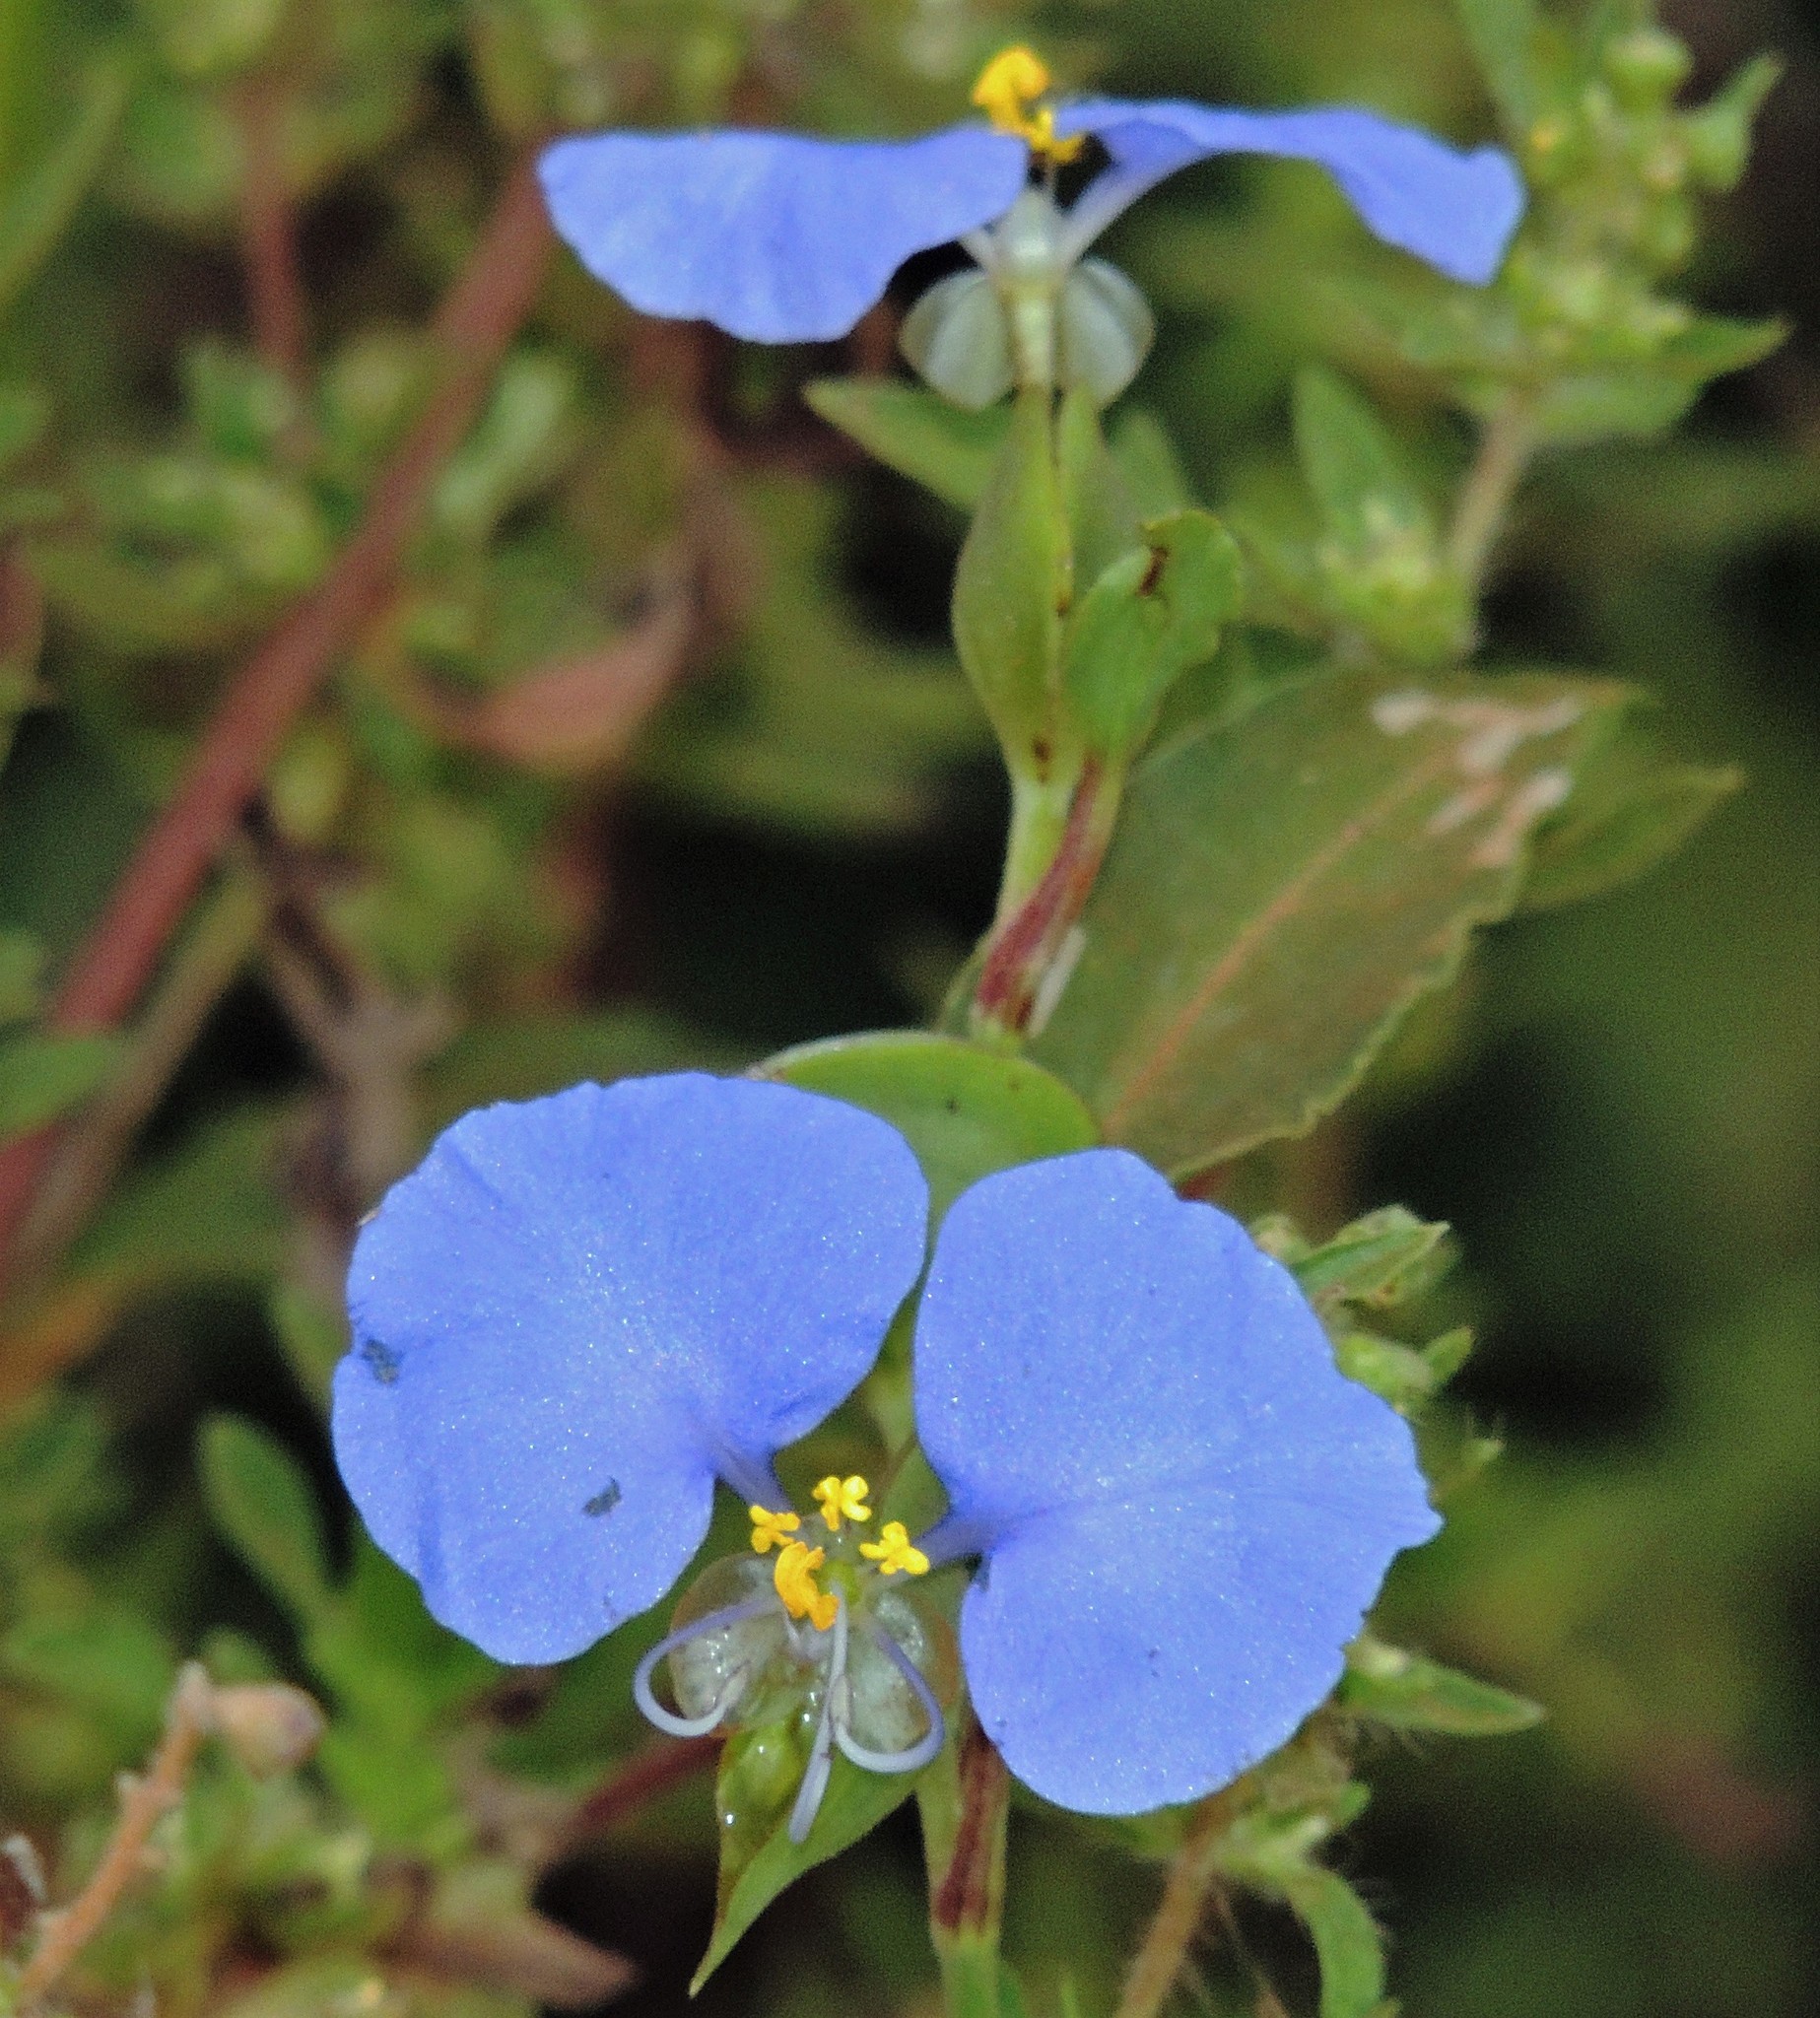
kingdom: Plantae
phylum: Tracheophyta
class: Liliopsida
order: Commelinales
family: Commelinaceae
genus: Commelina
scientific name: Commelina erecta
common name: Blousel blommetjie
